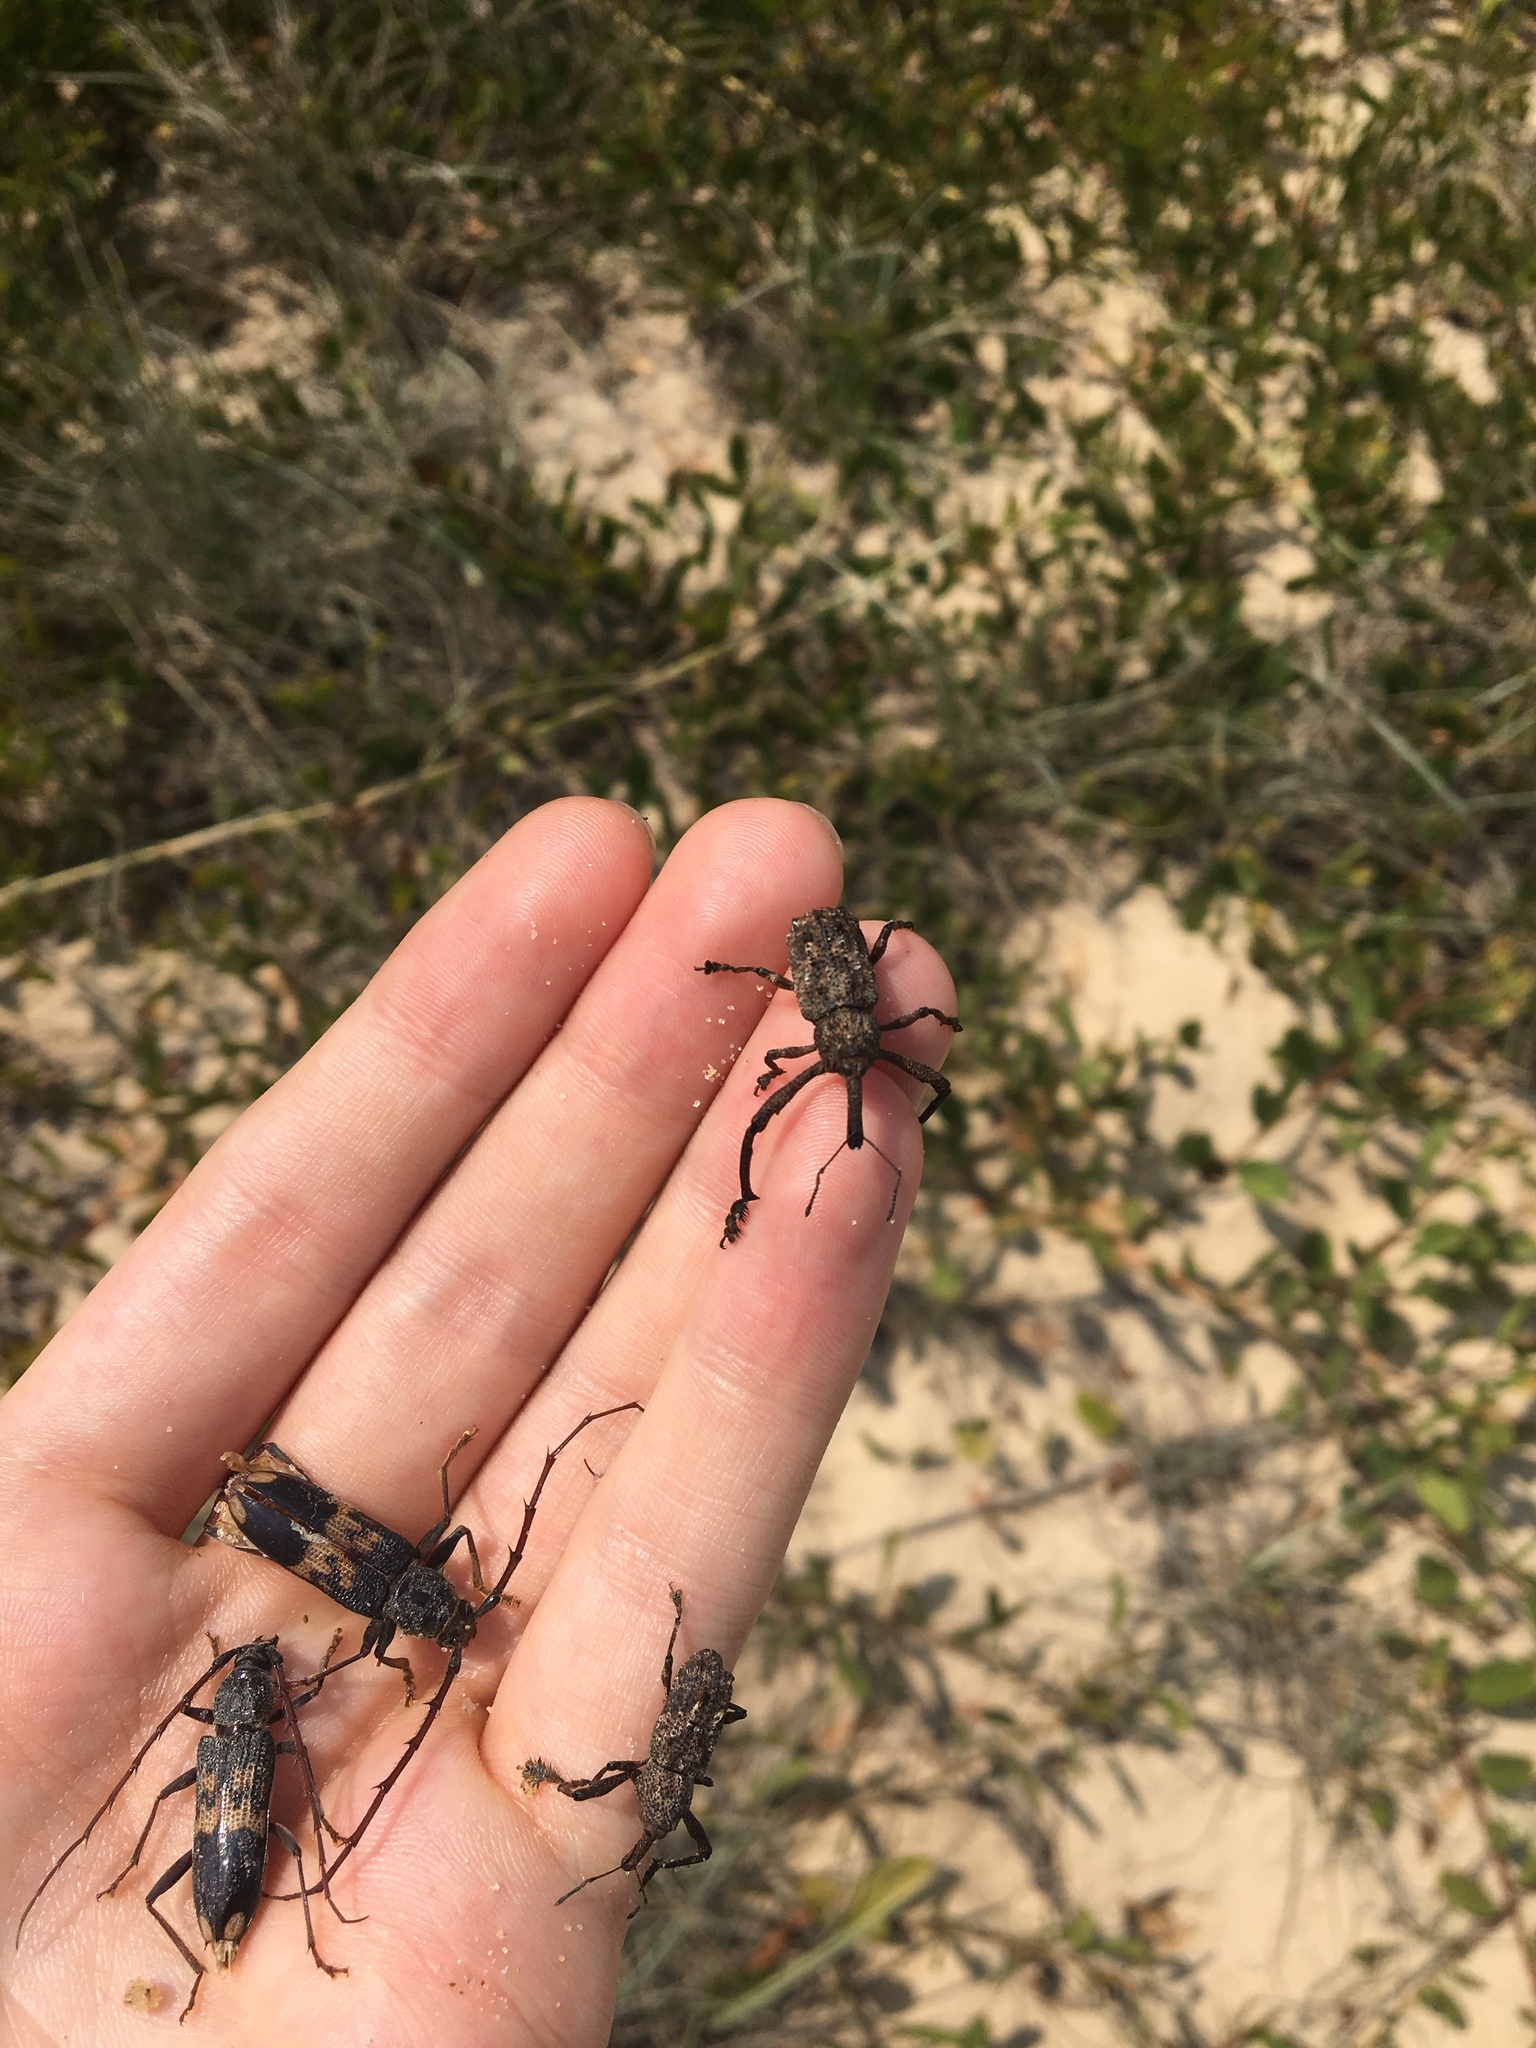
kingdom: Animalia
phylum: Arthropoda
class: Insecta
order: Coleoptera
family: Curculionidae
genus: Orthorhinus
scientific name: Orthorhinus cylindrirostris
